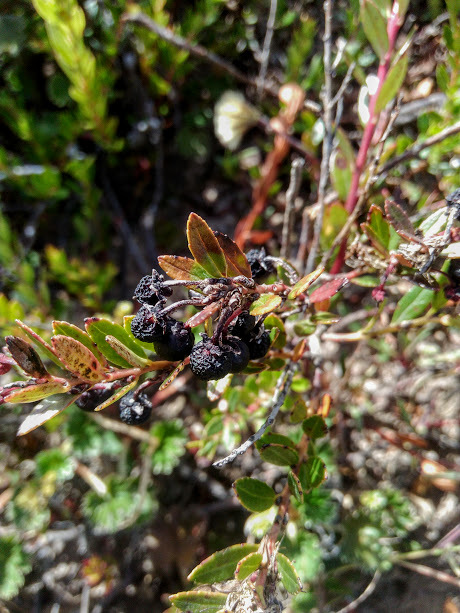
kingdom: Plantae
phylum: Tracheophyta
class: Magnoliopsida
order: Ericales
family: Ericaceae
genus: Gaultheria
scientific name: Gaultheria myrsinoides
